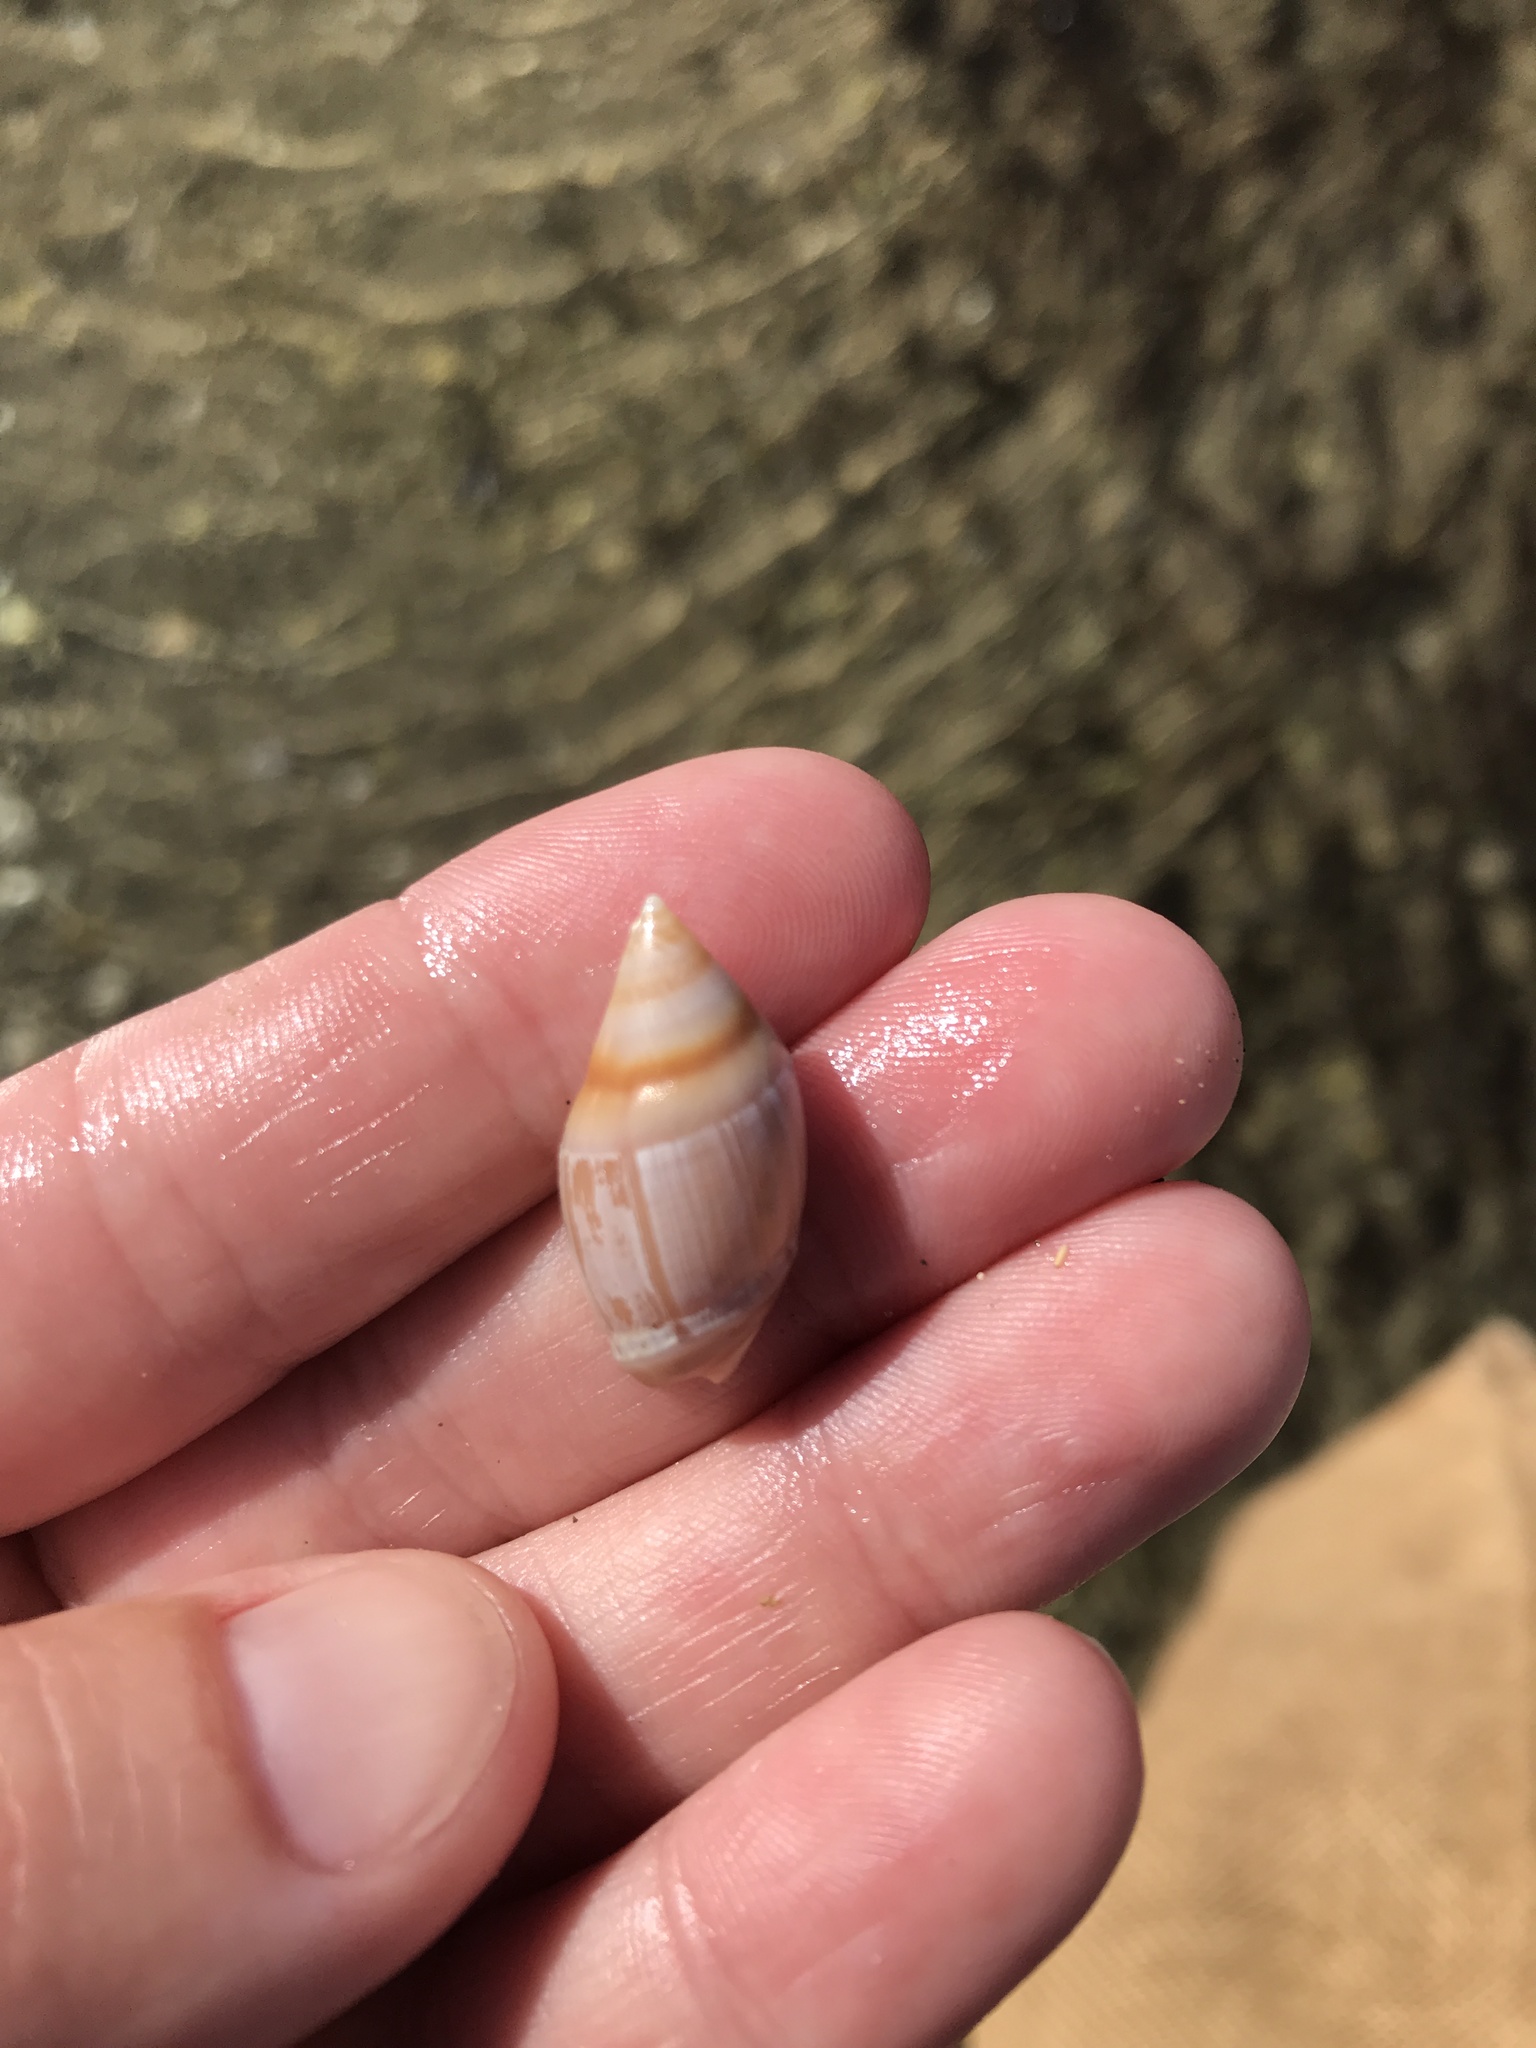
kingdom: Animalia
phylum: Mollusca
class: Gastropoda
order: Neogastropoda
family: Ancillariidae
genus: Amalda
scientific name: Amalda australis
